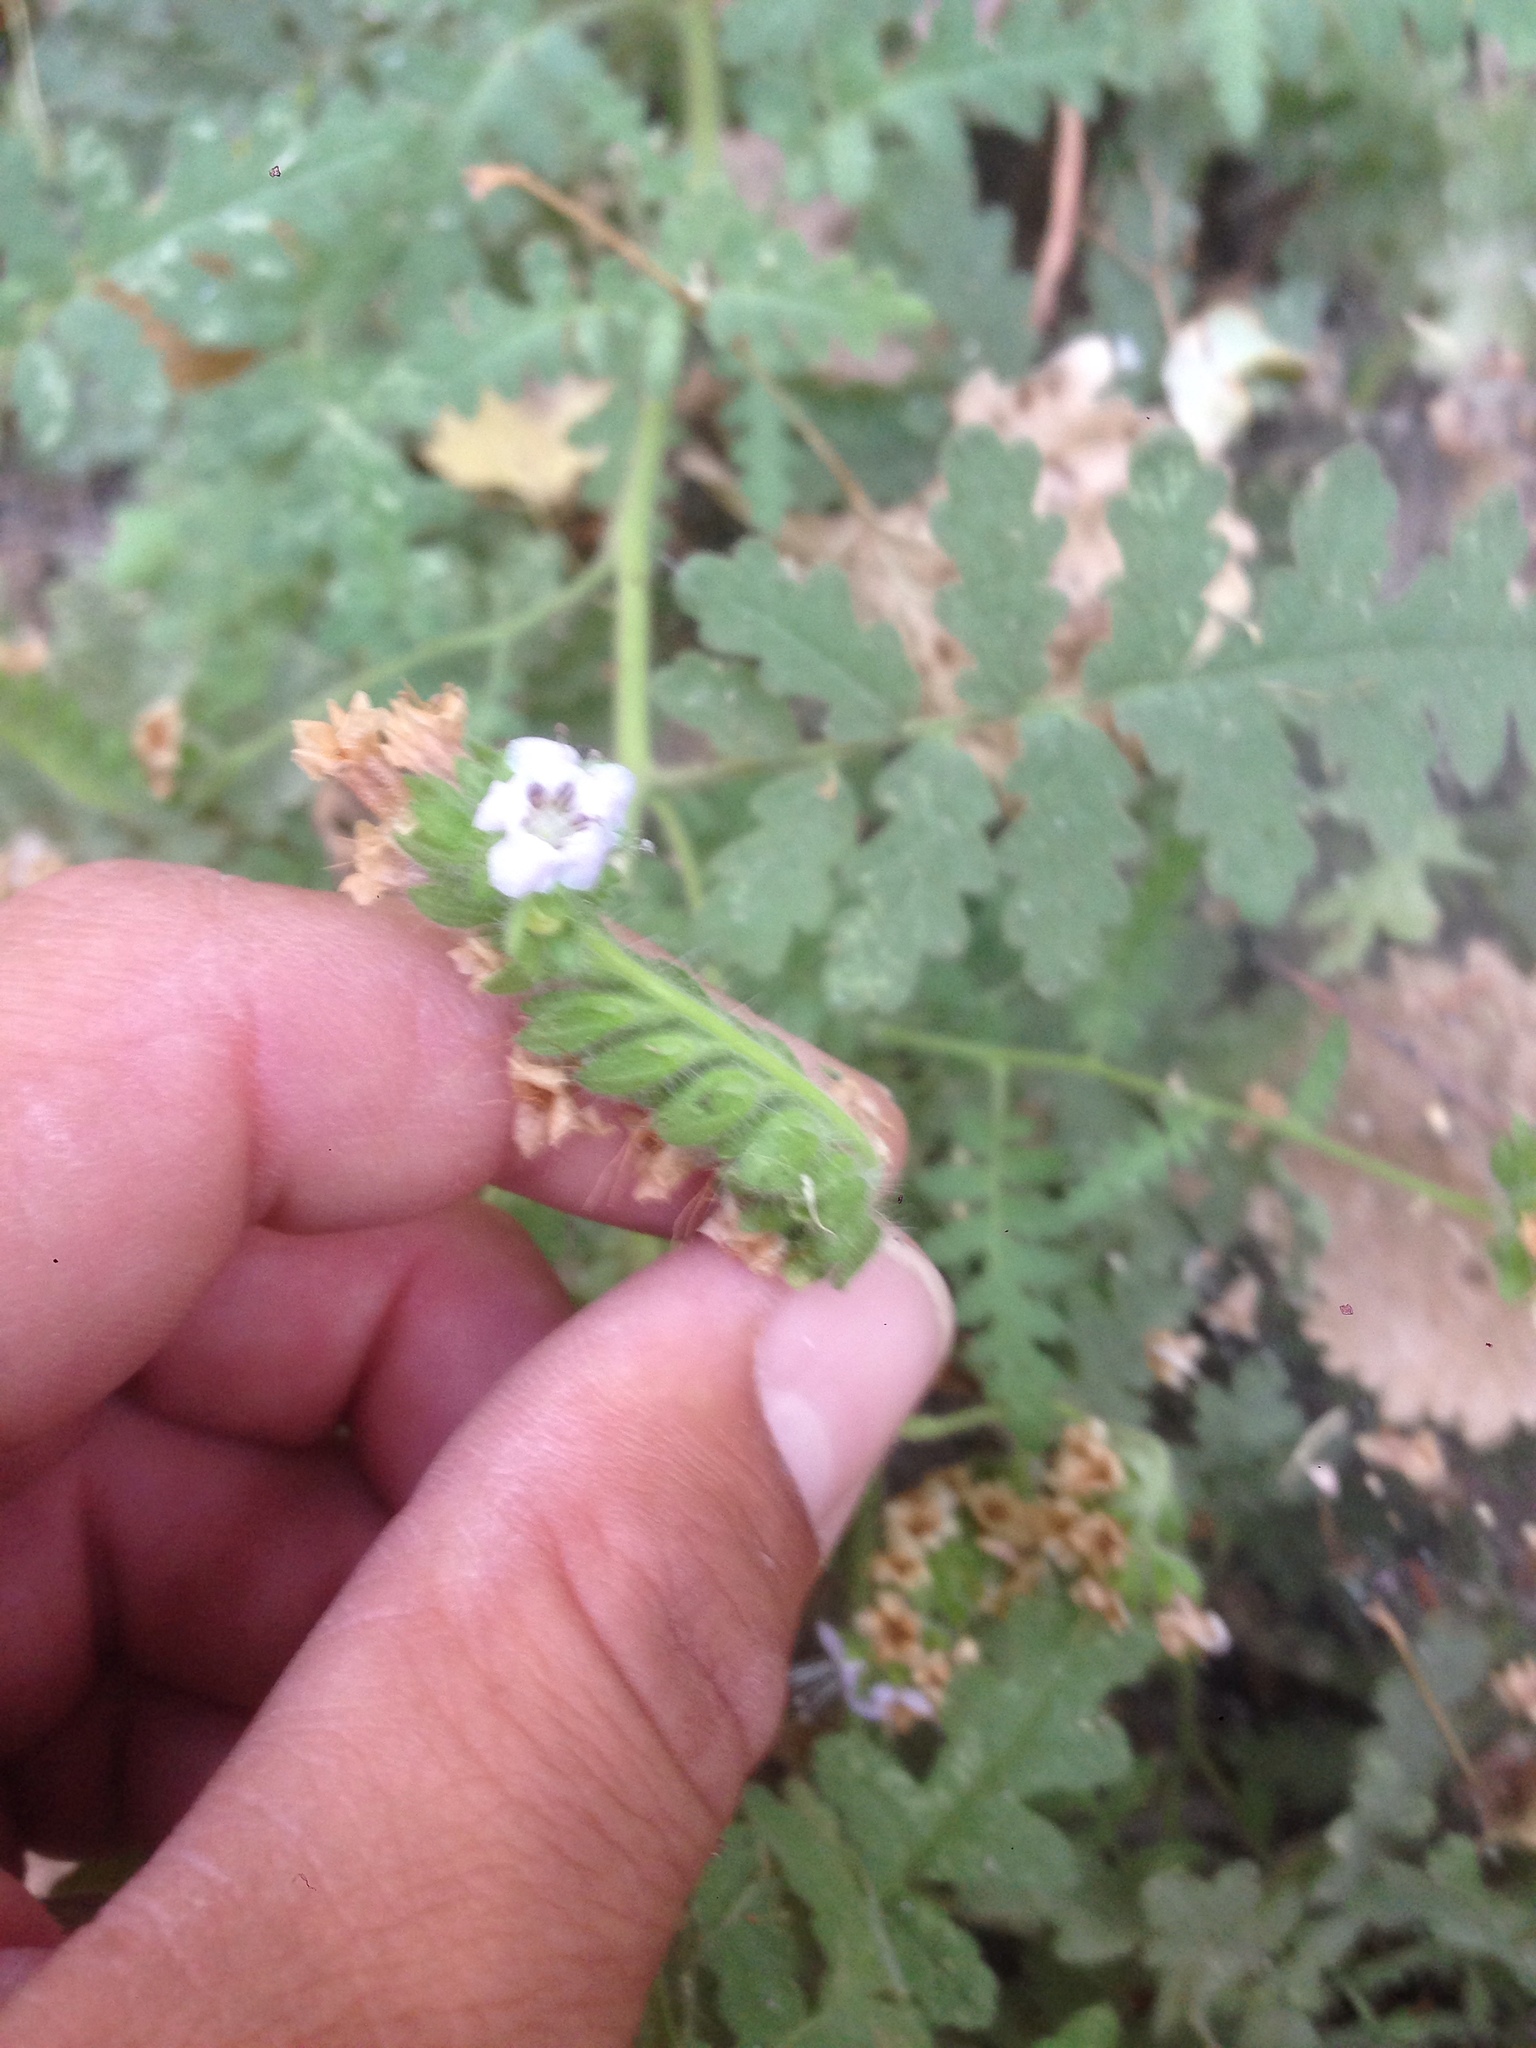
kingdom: Plantae
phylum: Tracheophyta
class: Magnoliopsida
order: Boraginales
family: Hydrophyllaceae
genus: Phacelia
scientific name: Phacelia ramosissima
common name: Branching phacelia
